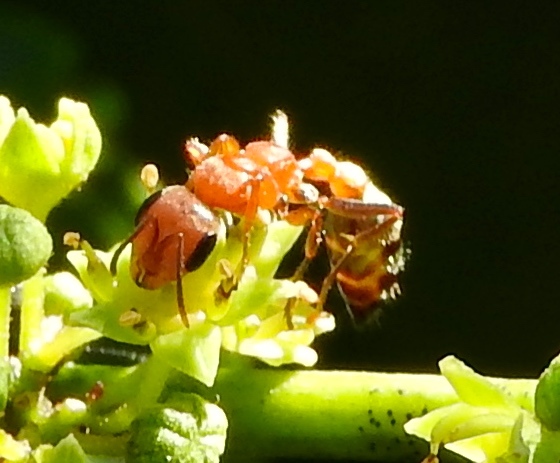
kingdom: Animalia
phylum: Arthropoda
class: Insecta
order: Hymenoptera
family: Formicidae
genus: Pseudomyrmex
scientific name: Pseudomyrmex
